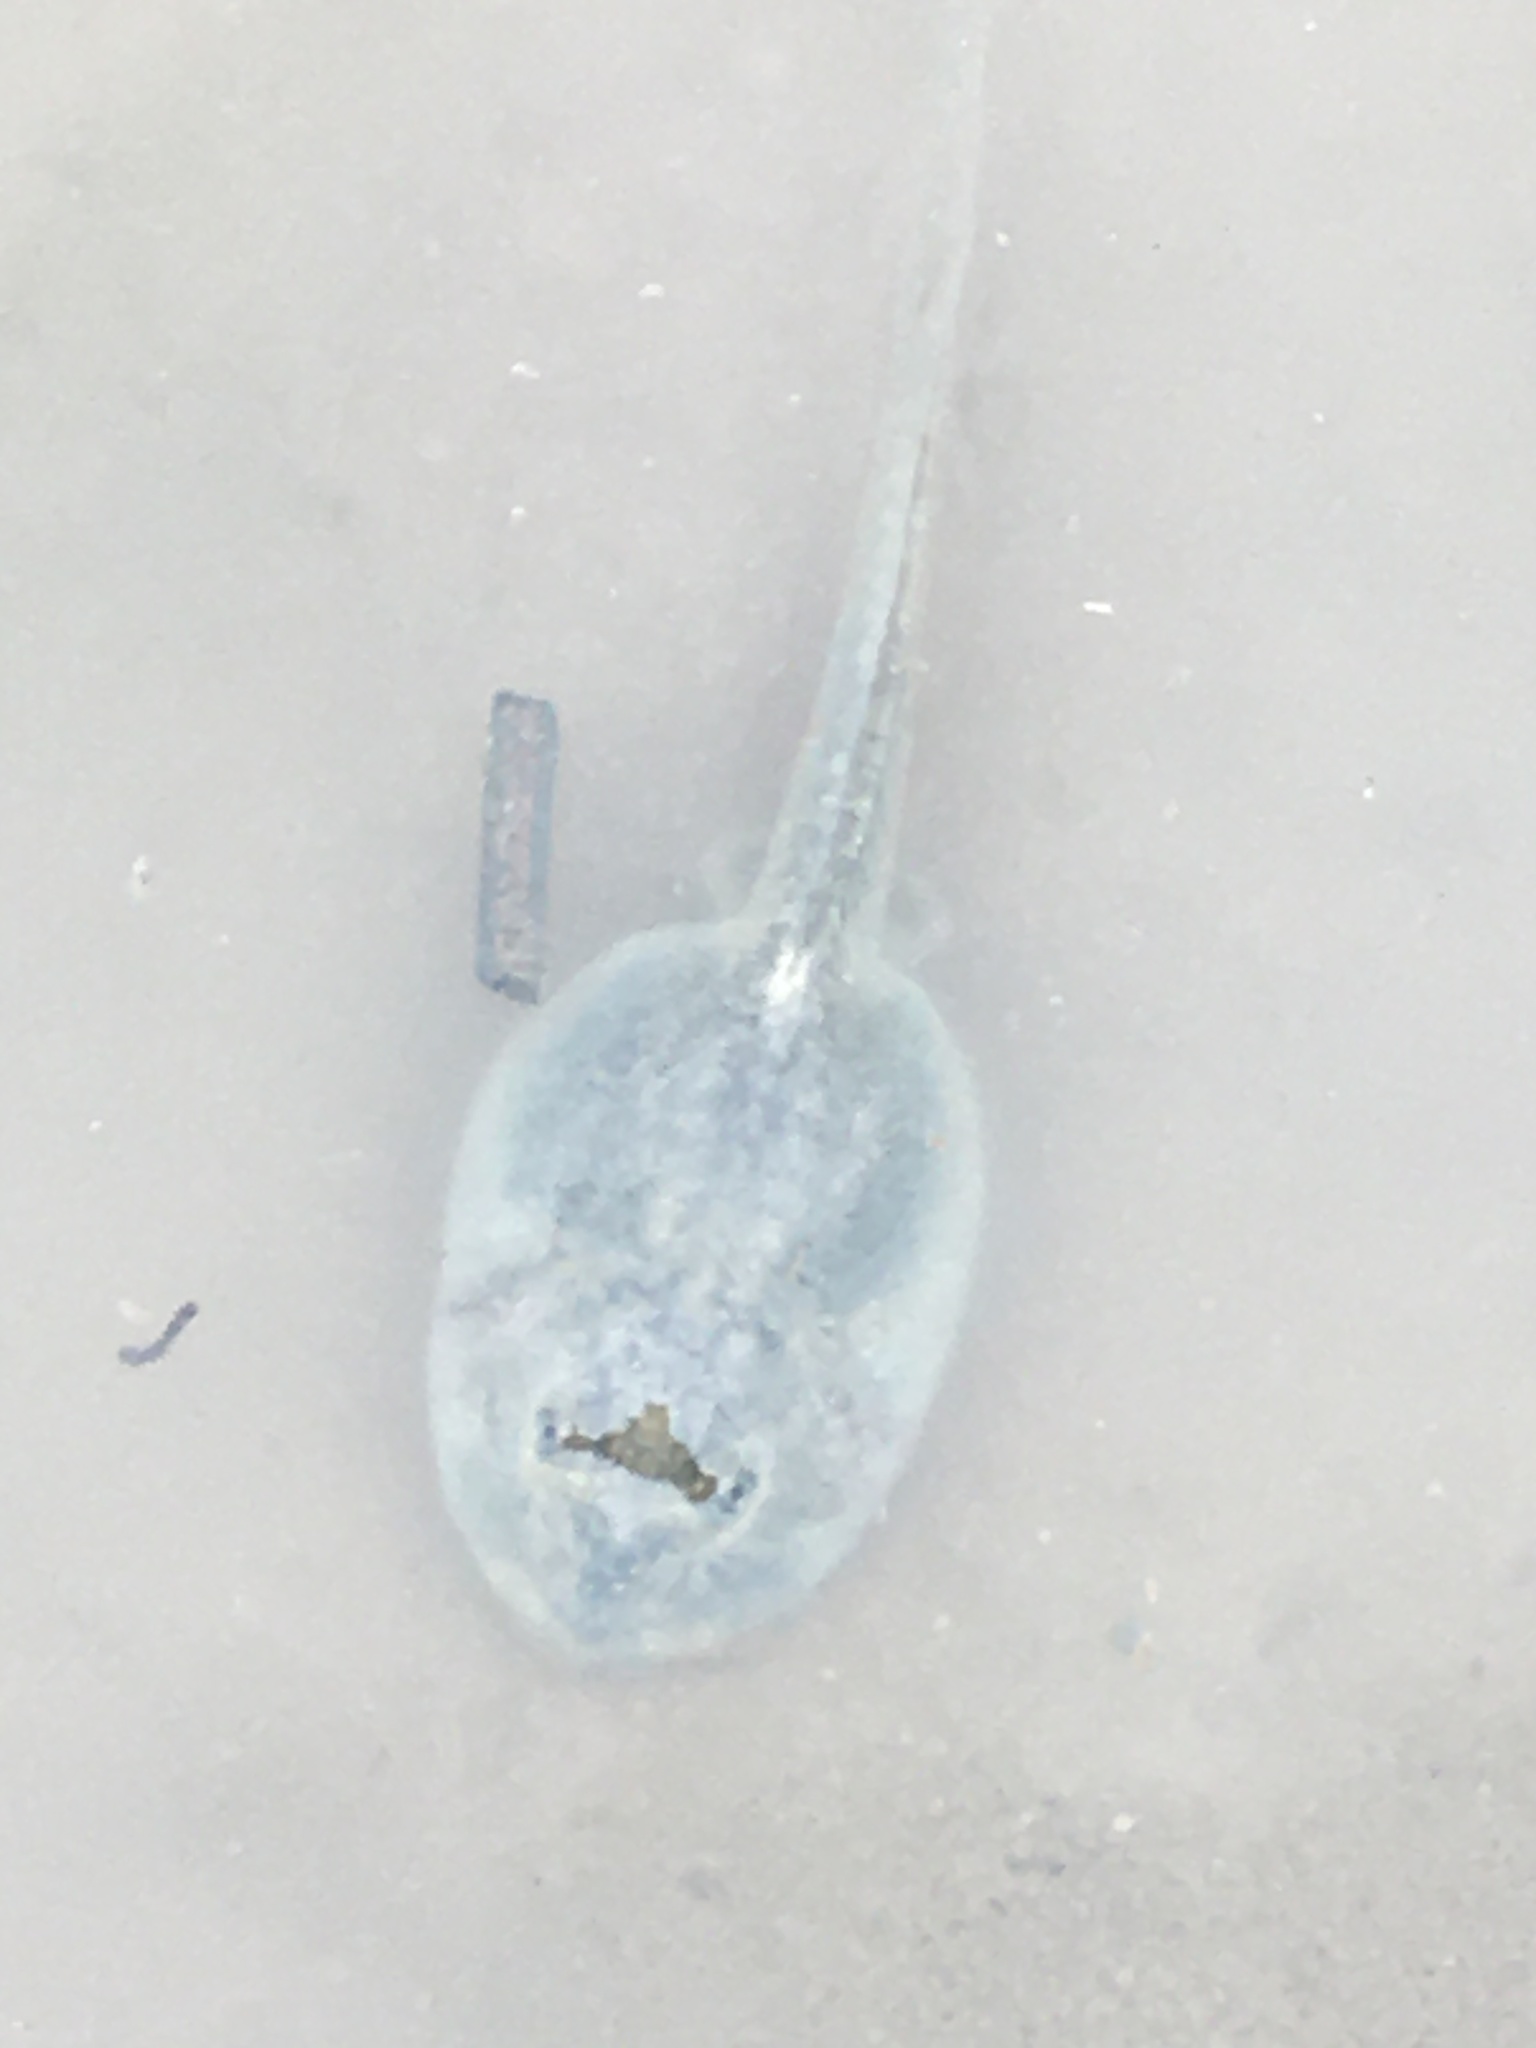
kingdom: Animalia
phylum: Chordata
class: Amphibia
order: Anura
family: Scaphiopodidae
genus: Spea
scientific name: Spea hammondii
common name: Western spadefoot toad
